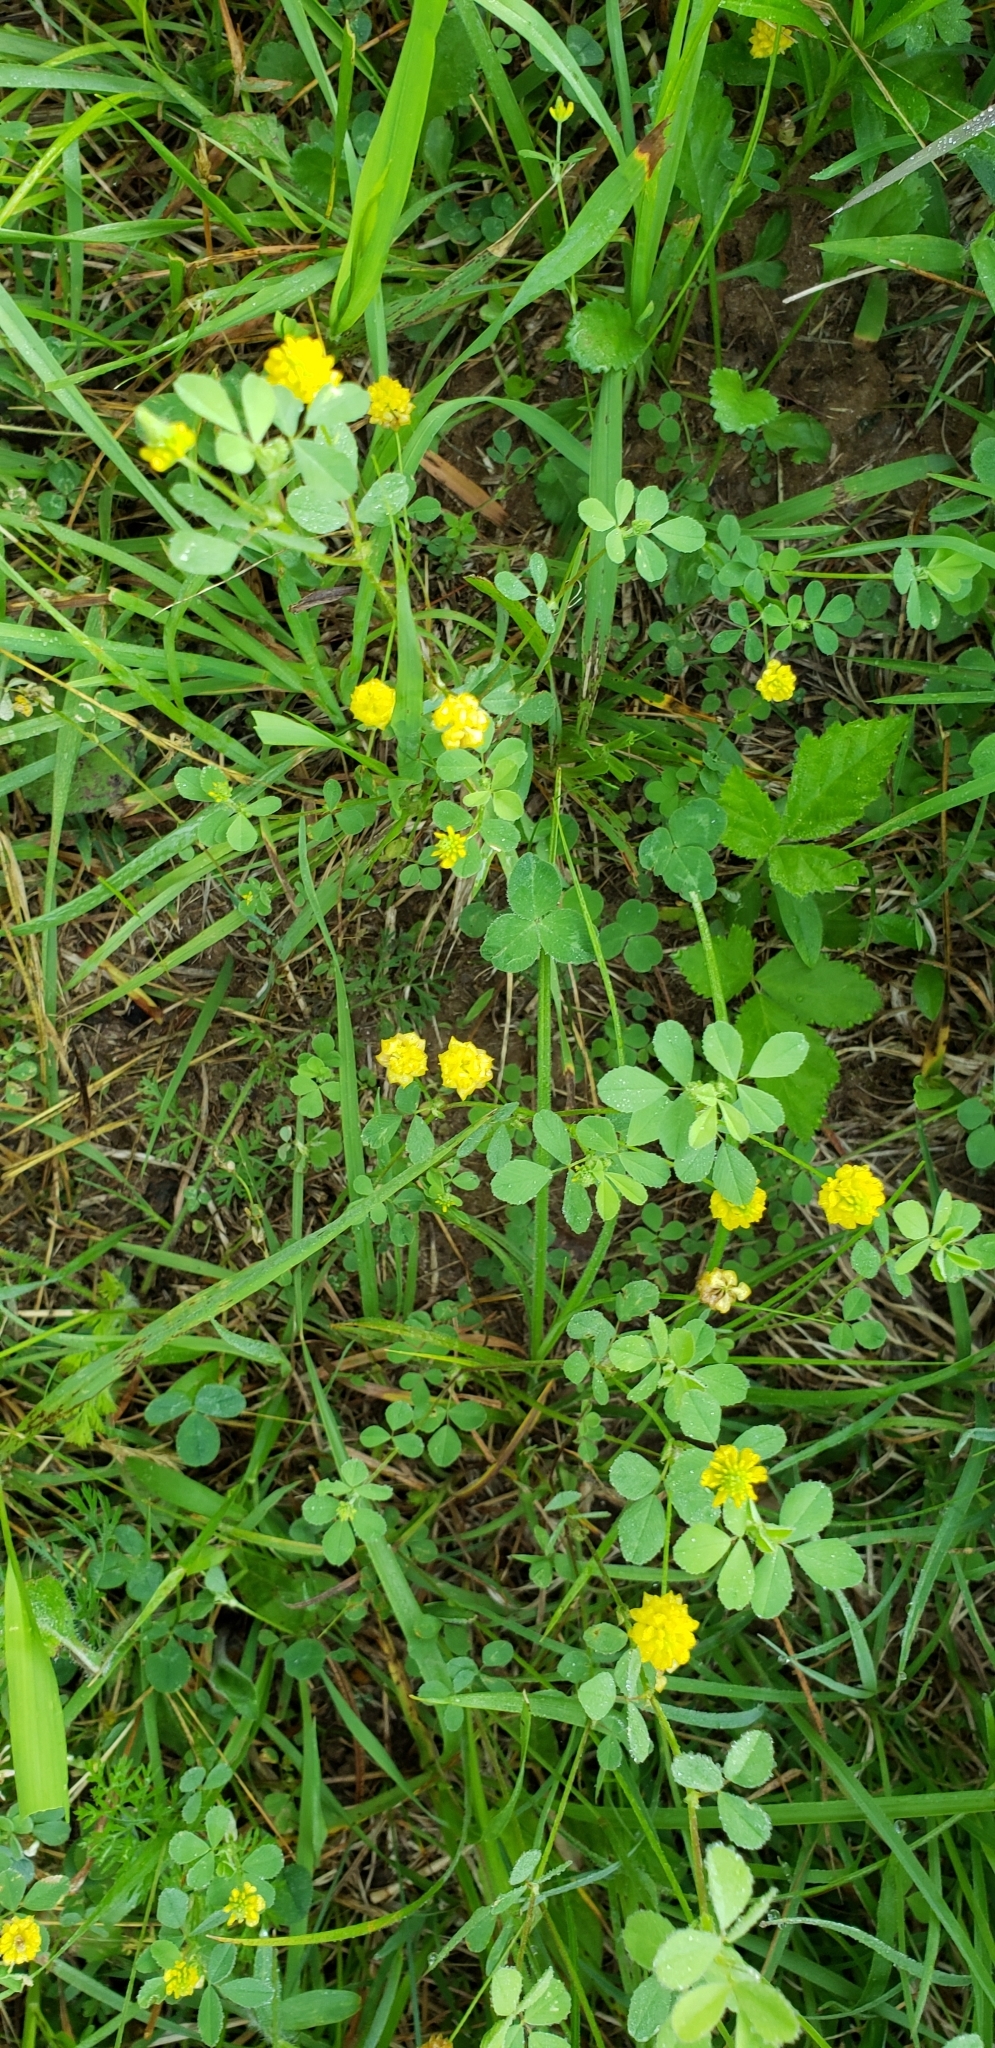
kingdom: Plantae
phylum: Tracheophyta
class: Magnoliopsida
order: Fabales
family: Fabaceae
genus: Trifolium
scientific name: Trifolium campestre
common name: Field clover
